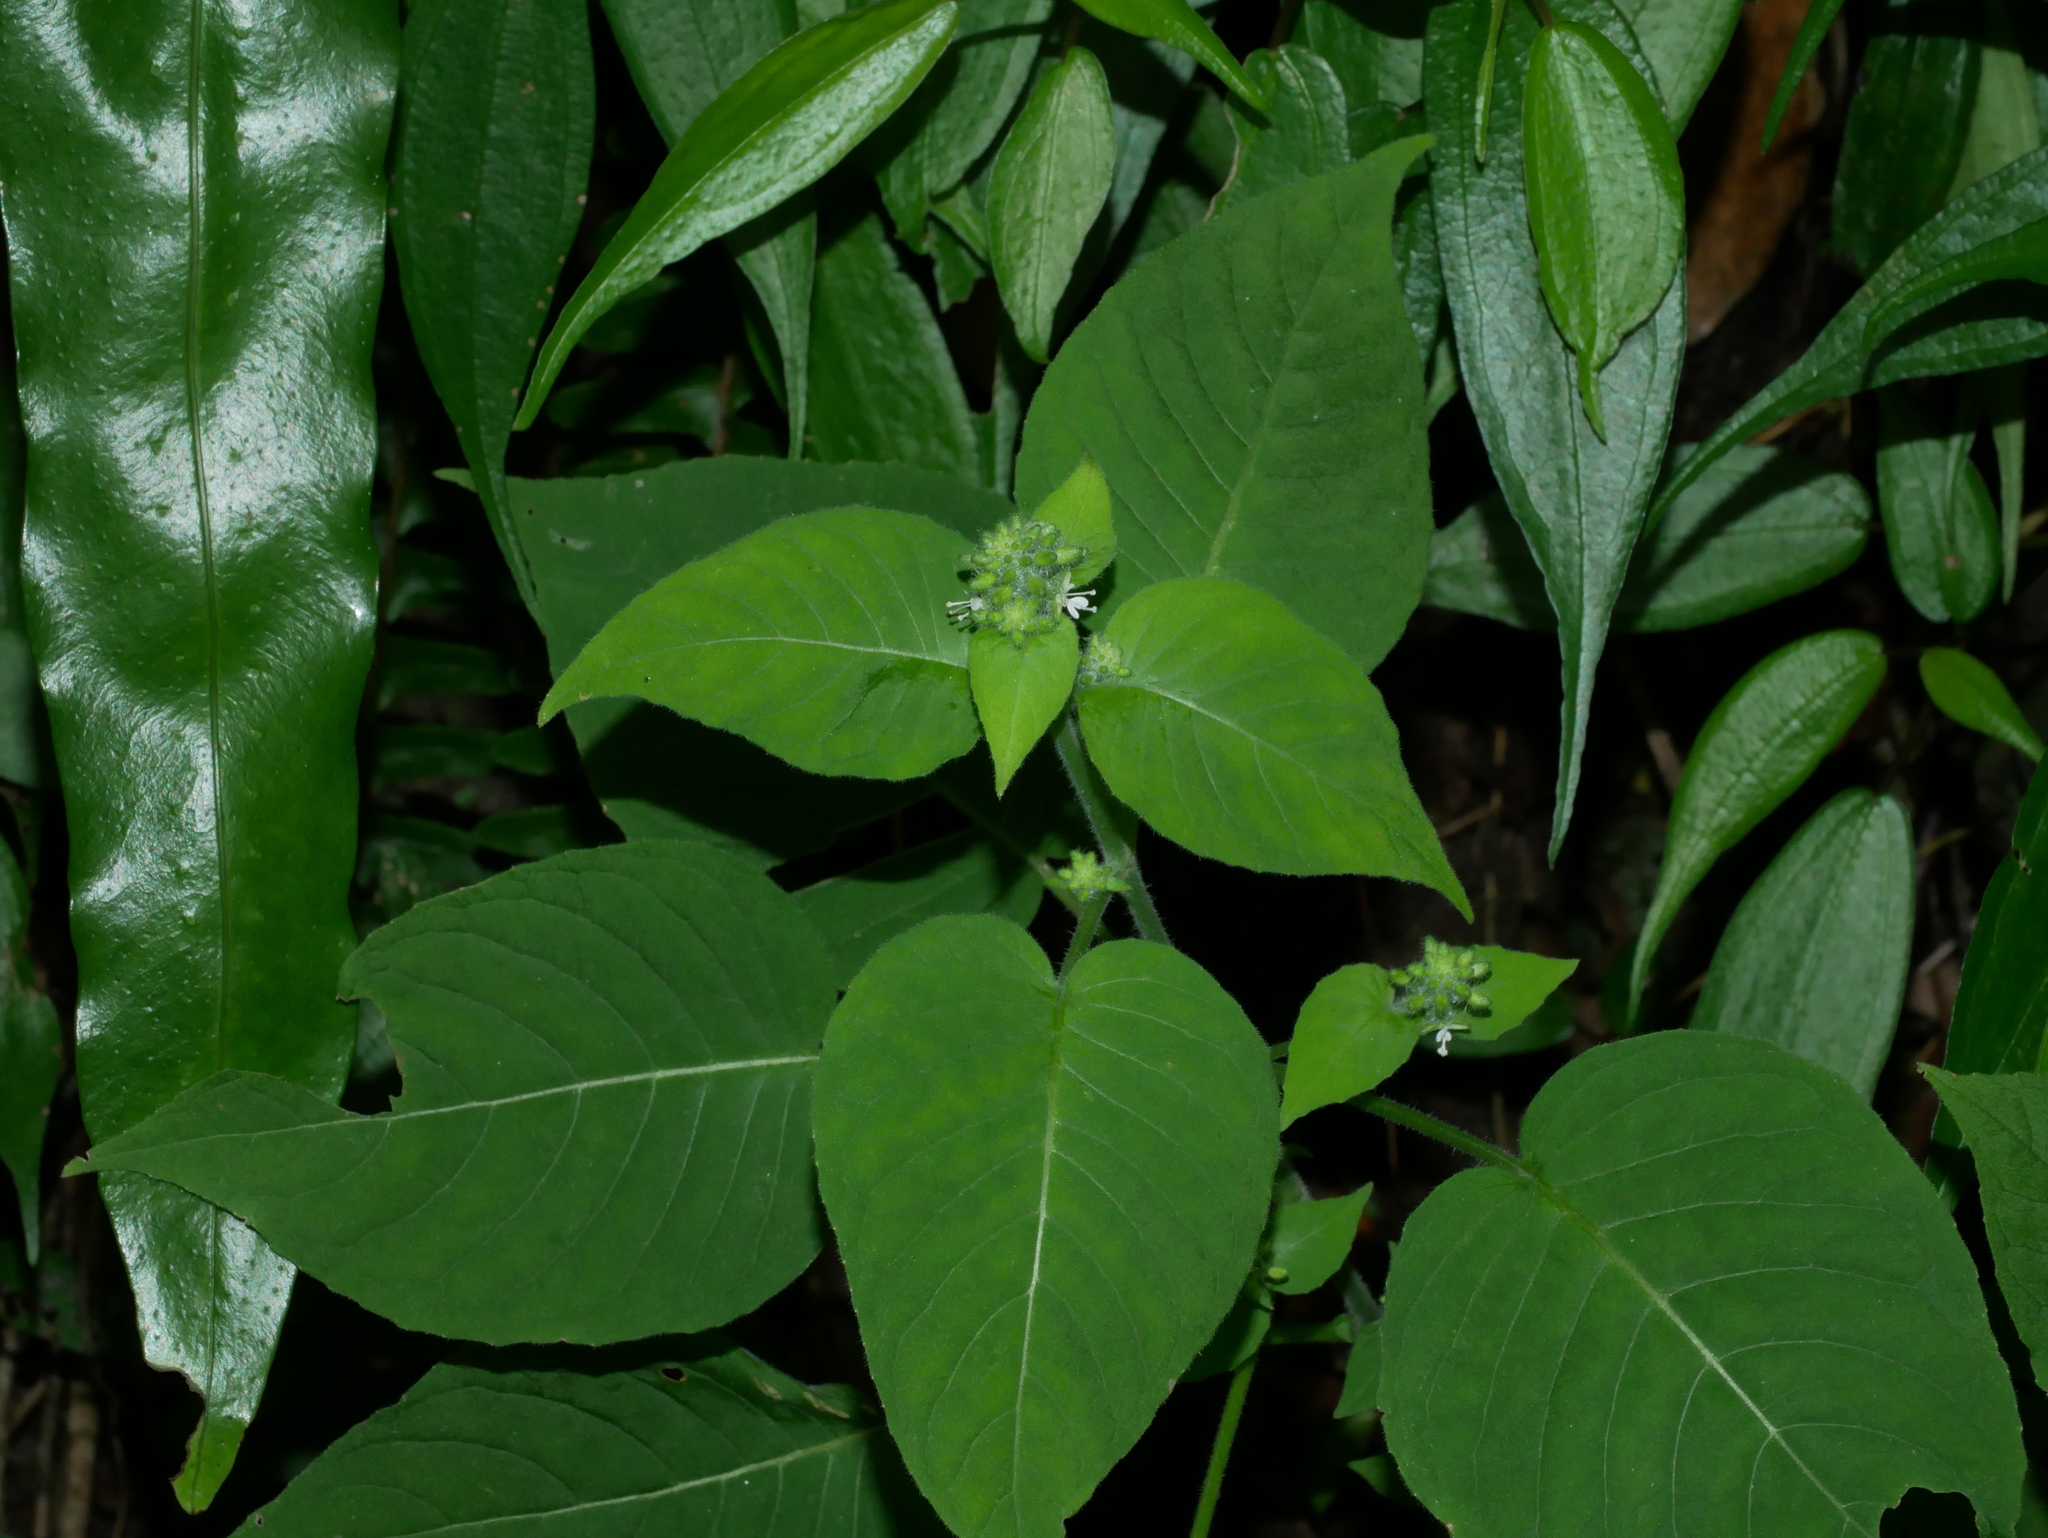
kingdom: Plantae
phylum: Tracheophyta
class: Magnoliopsida
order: Myrtales
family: Onagraceae
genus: Circaea
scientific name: Circaea cordata
